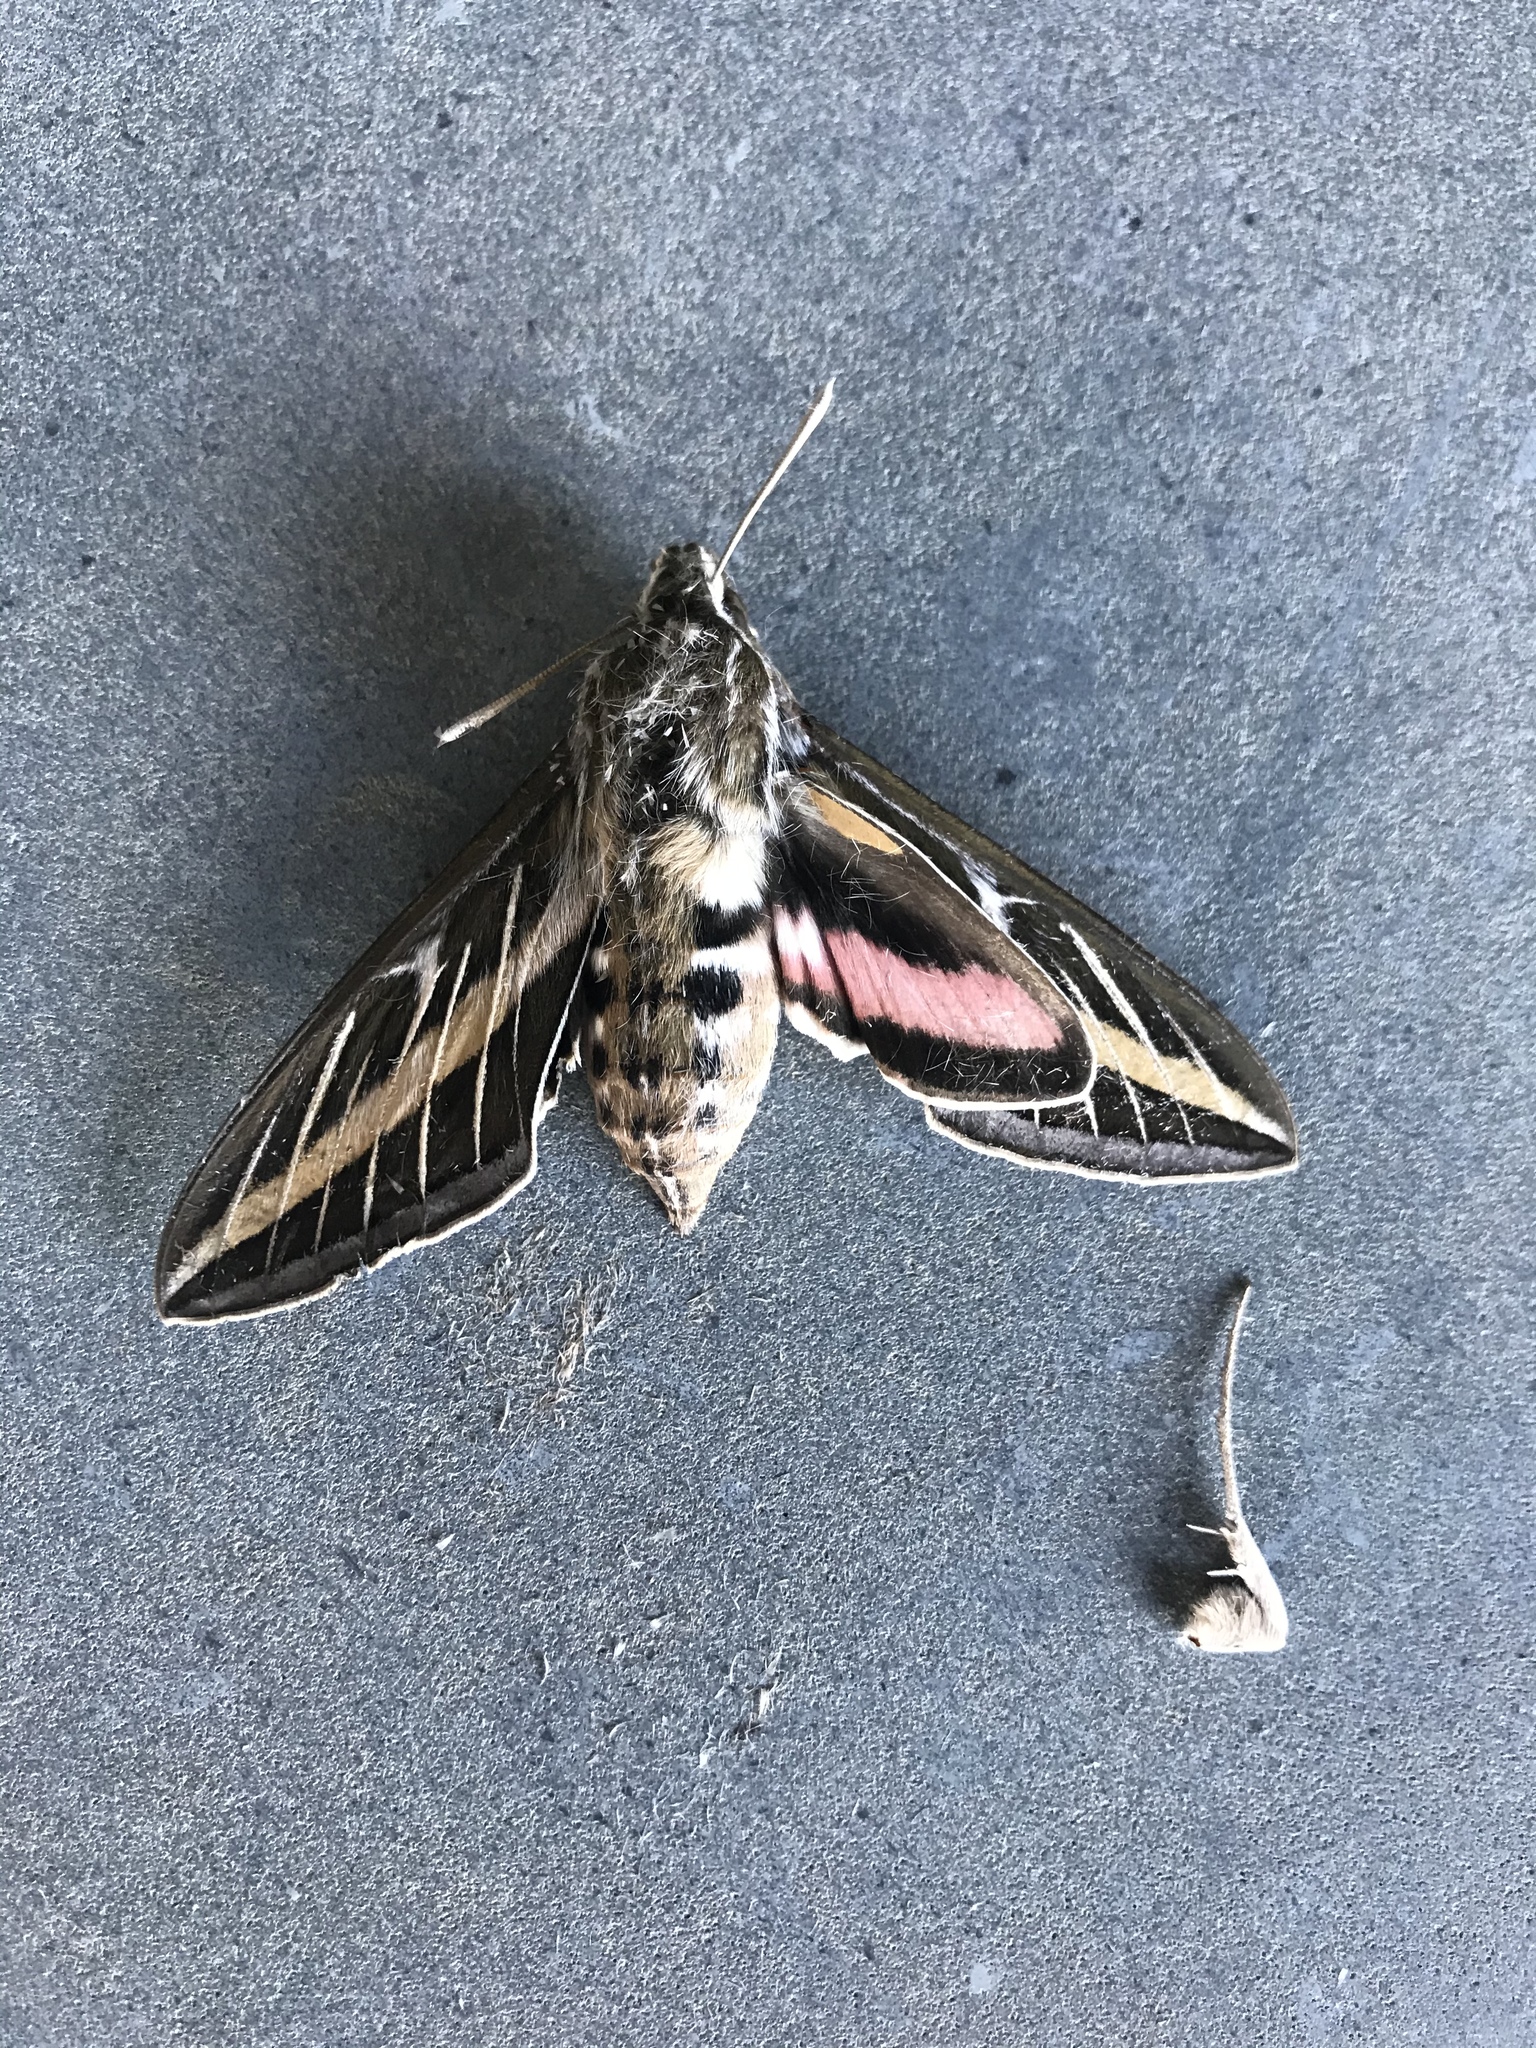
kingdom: Animalia
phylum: Arthropoda
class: Insecta
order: Lepidoptera
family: Sphingidae
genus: Hyles
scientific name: Hyles lineata
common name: White-lined sphinx
